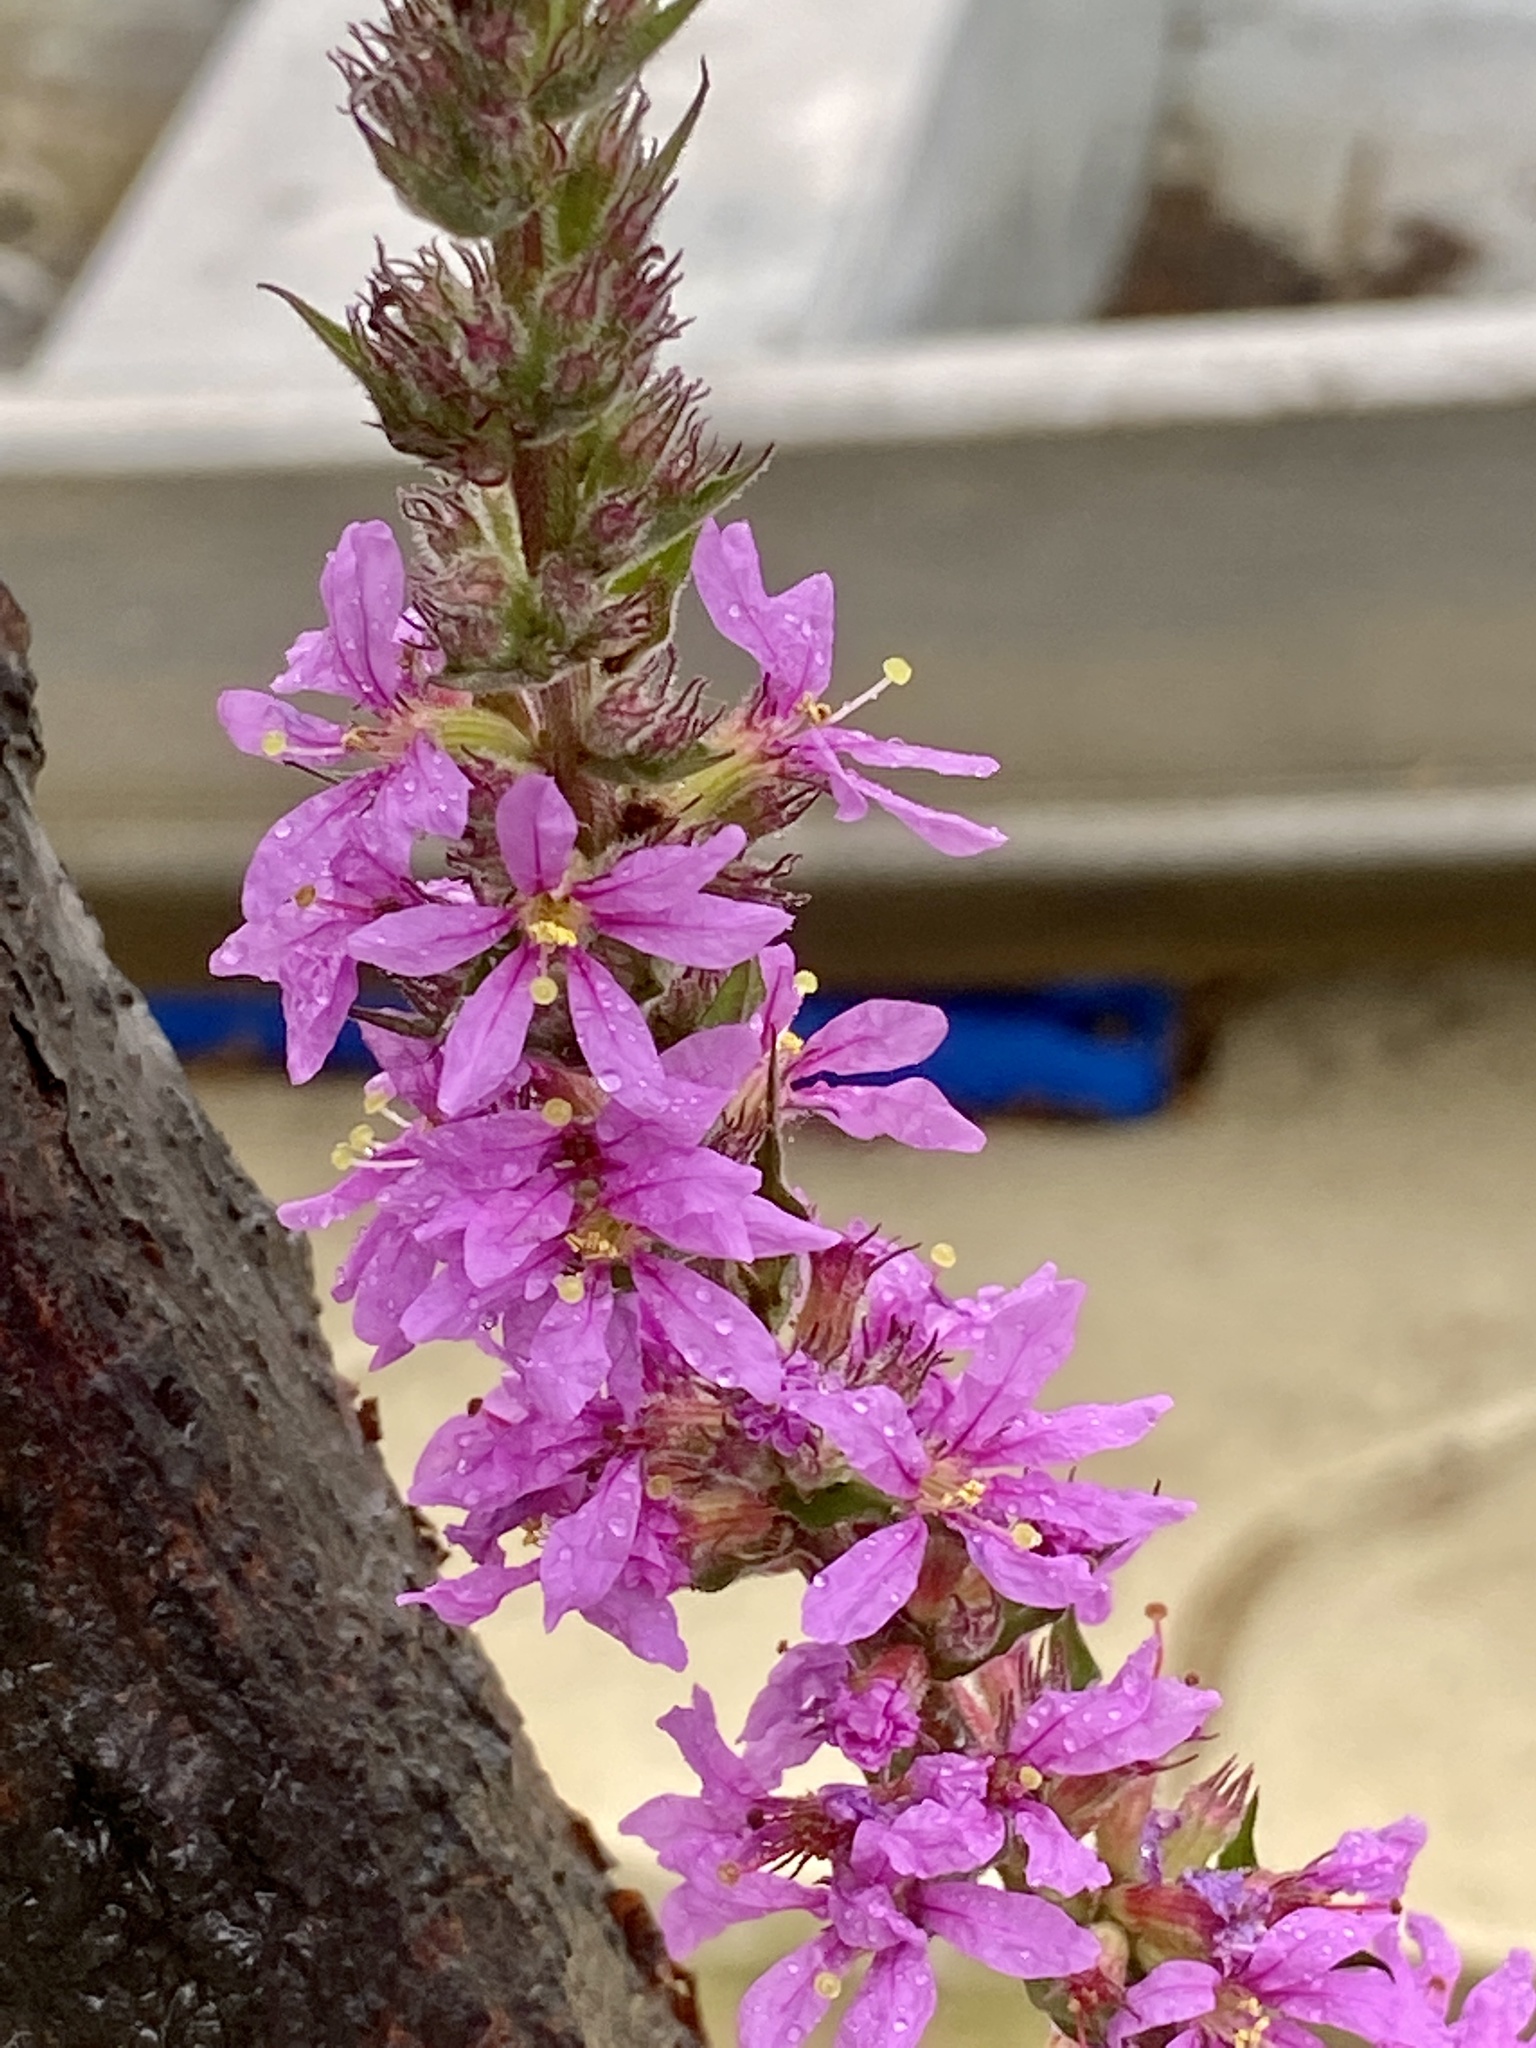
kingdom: Plantae
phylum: Tracheophyta
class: Magnoliopsida
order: Myrtales
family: Lythraceae
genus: Lythrum
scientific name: Lythrum salicaria
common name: Purple loosestrife
